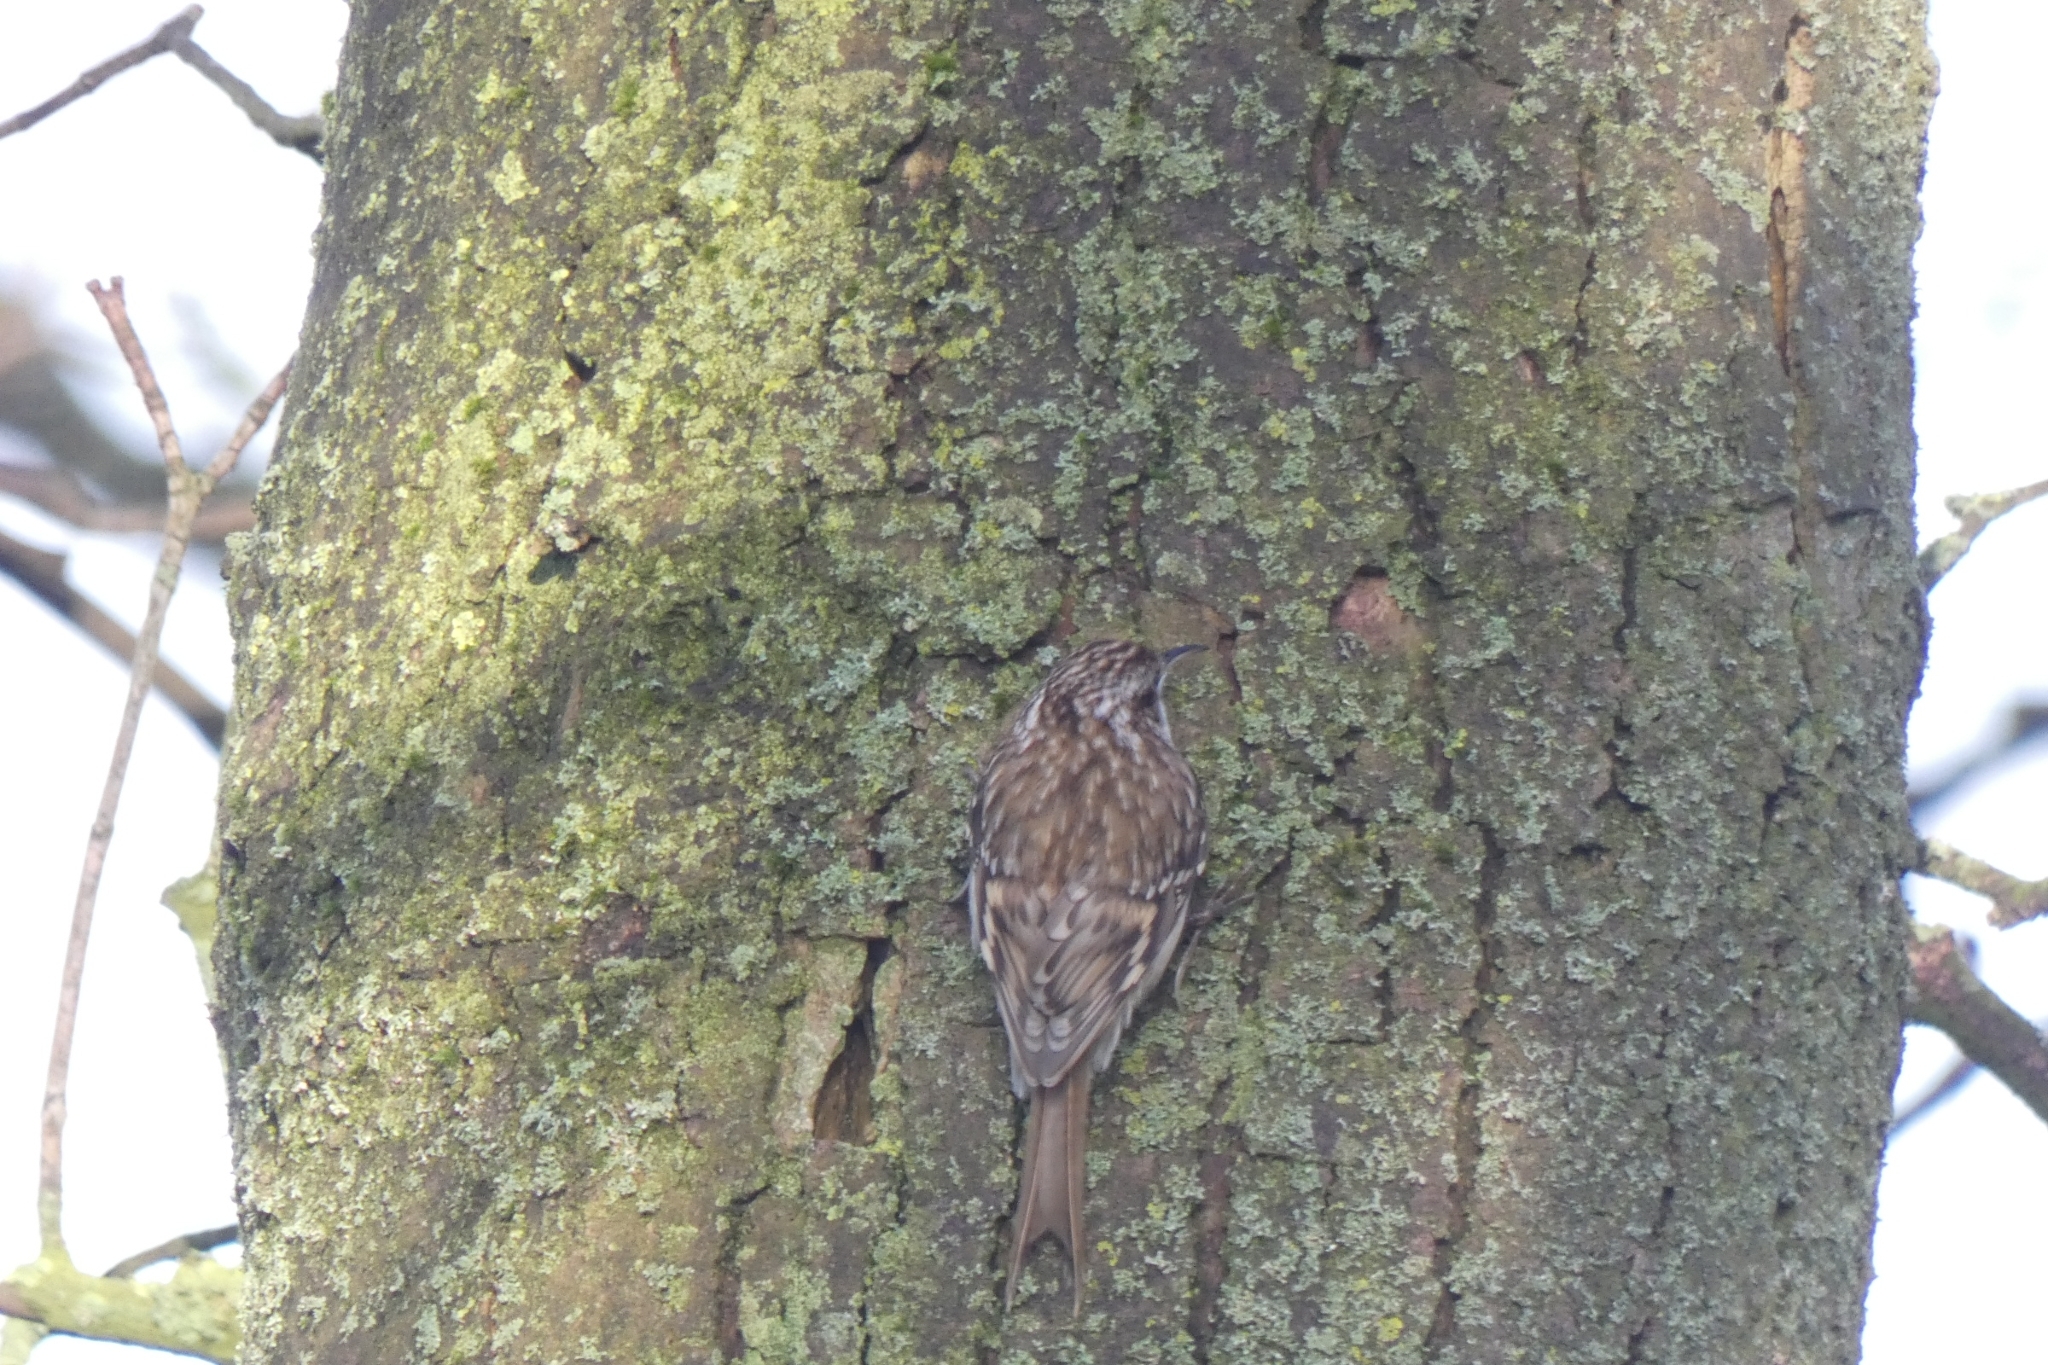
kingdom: Animalia
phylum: Chordata
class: Aves
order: Passeriformes
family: Certhiidae
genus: Certhia
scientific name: Certhia familiaris
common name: Eurasian treecreeper
